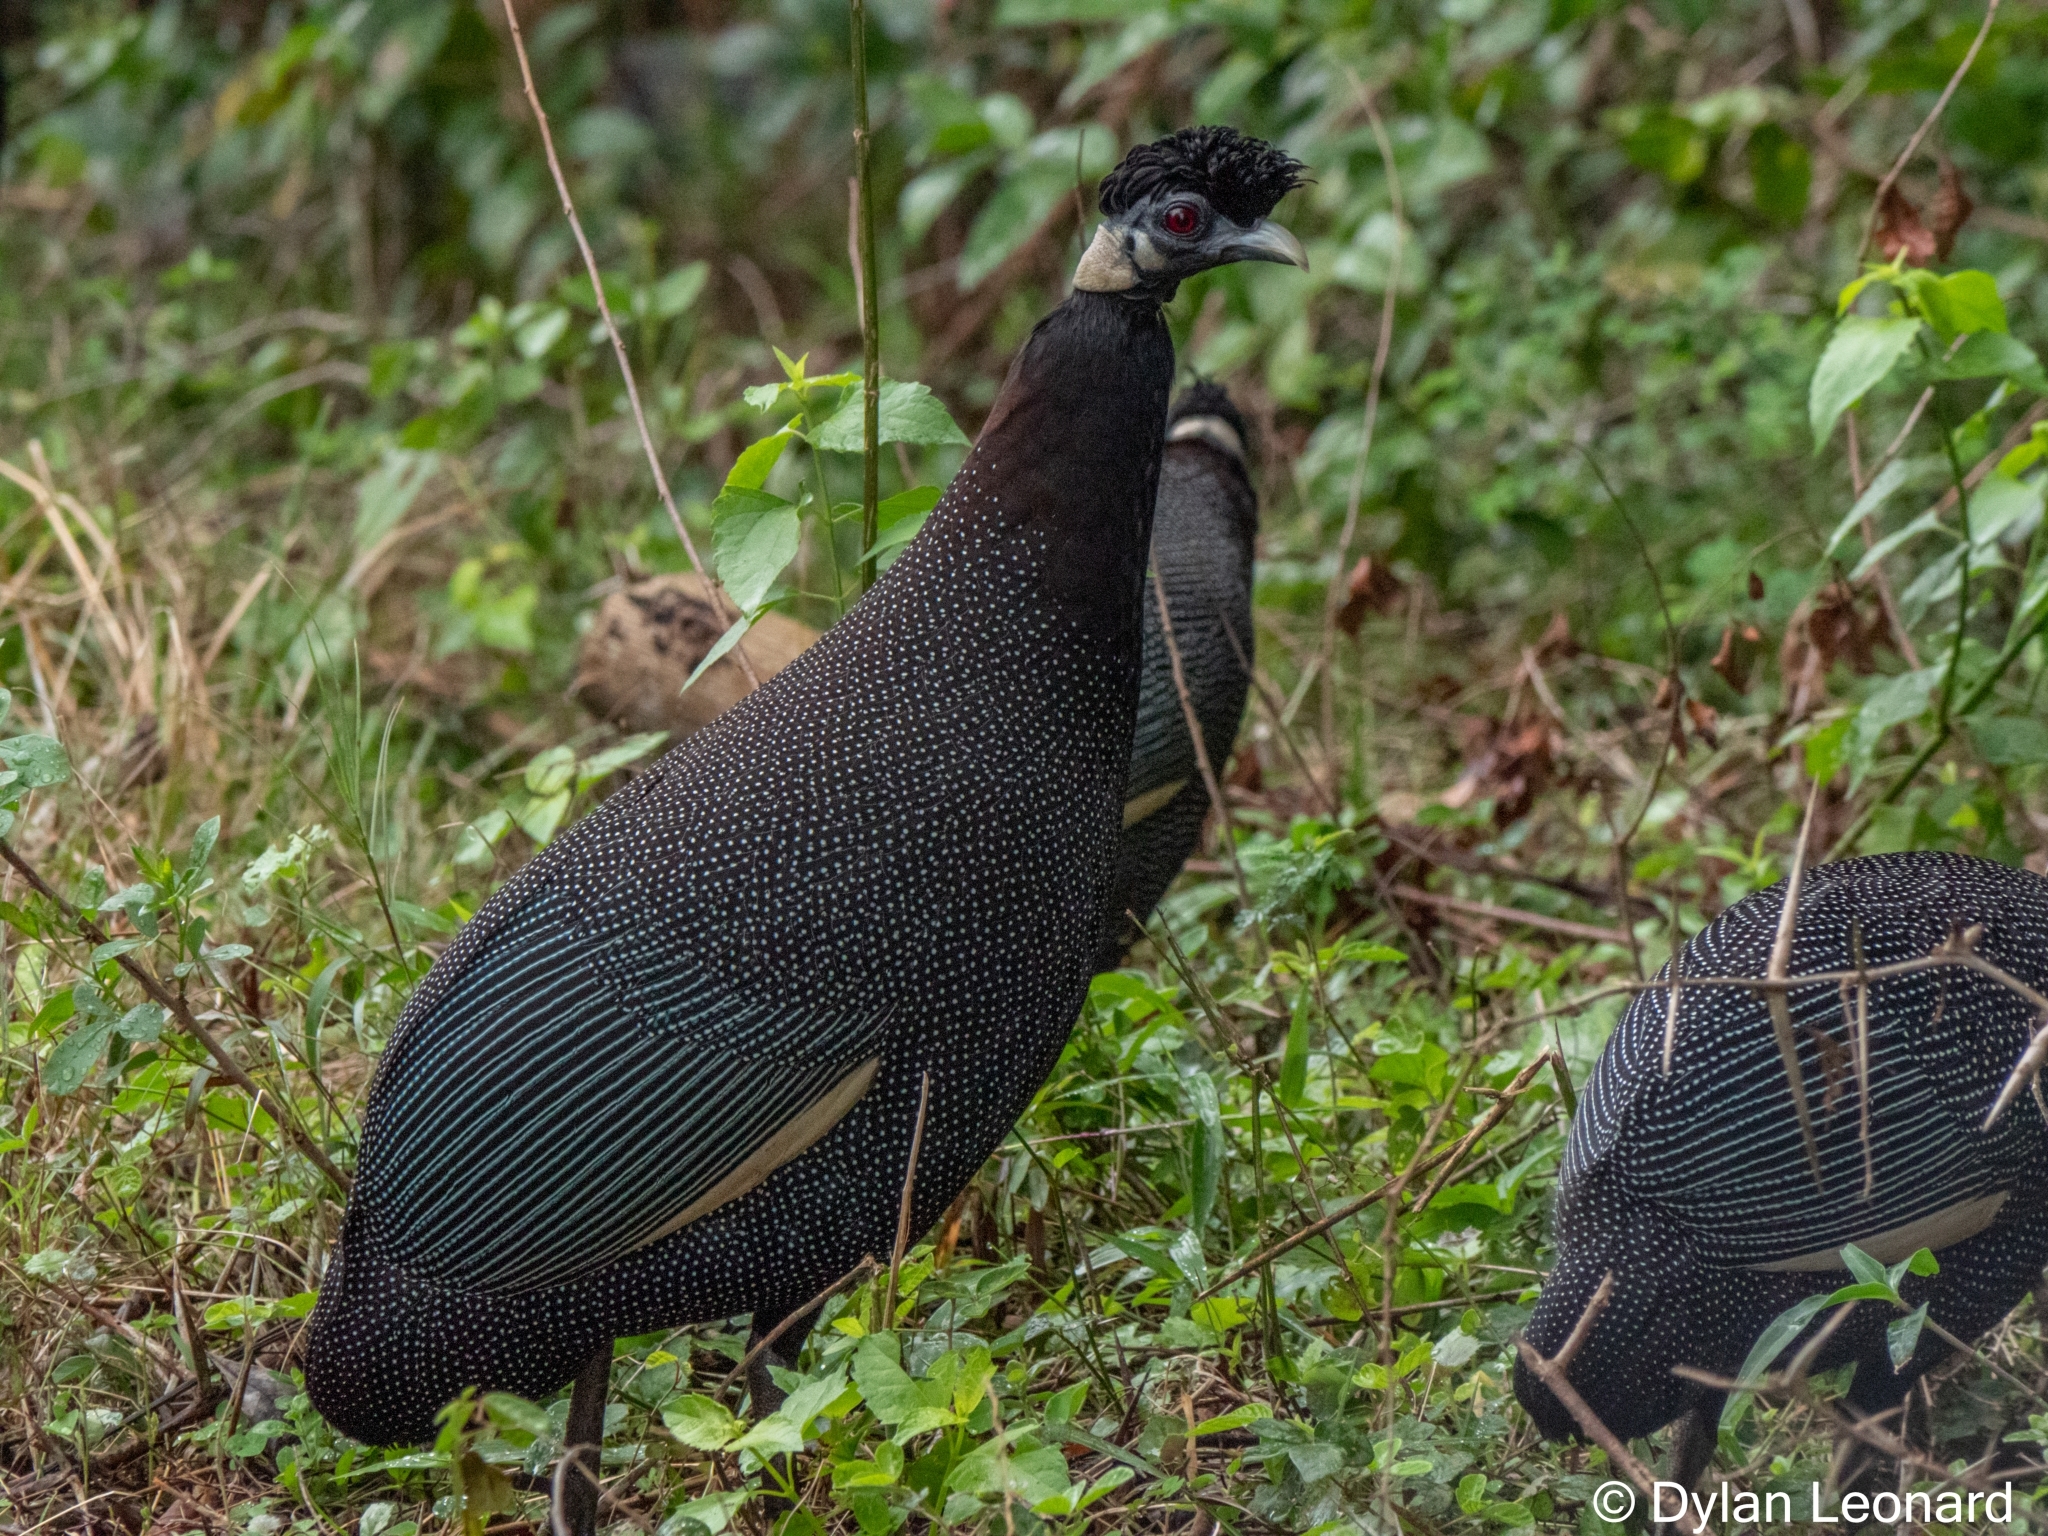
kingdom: Animalia
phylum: Chordata
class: Aves
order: Galliformes
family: Numididae
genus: Guttera
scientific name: Guttera pucherani
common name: Crested guineafowl
